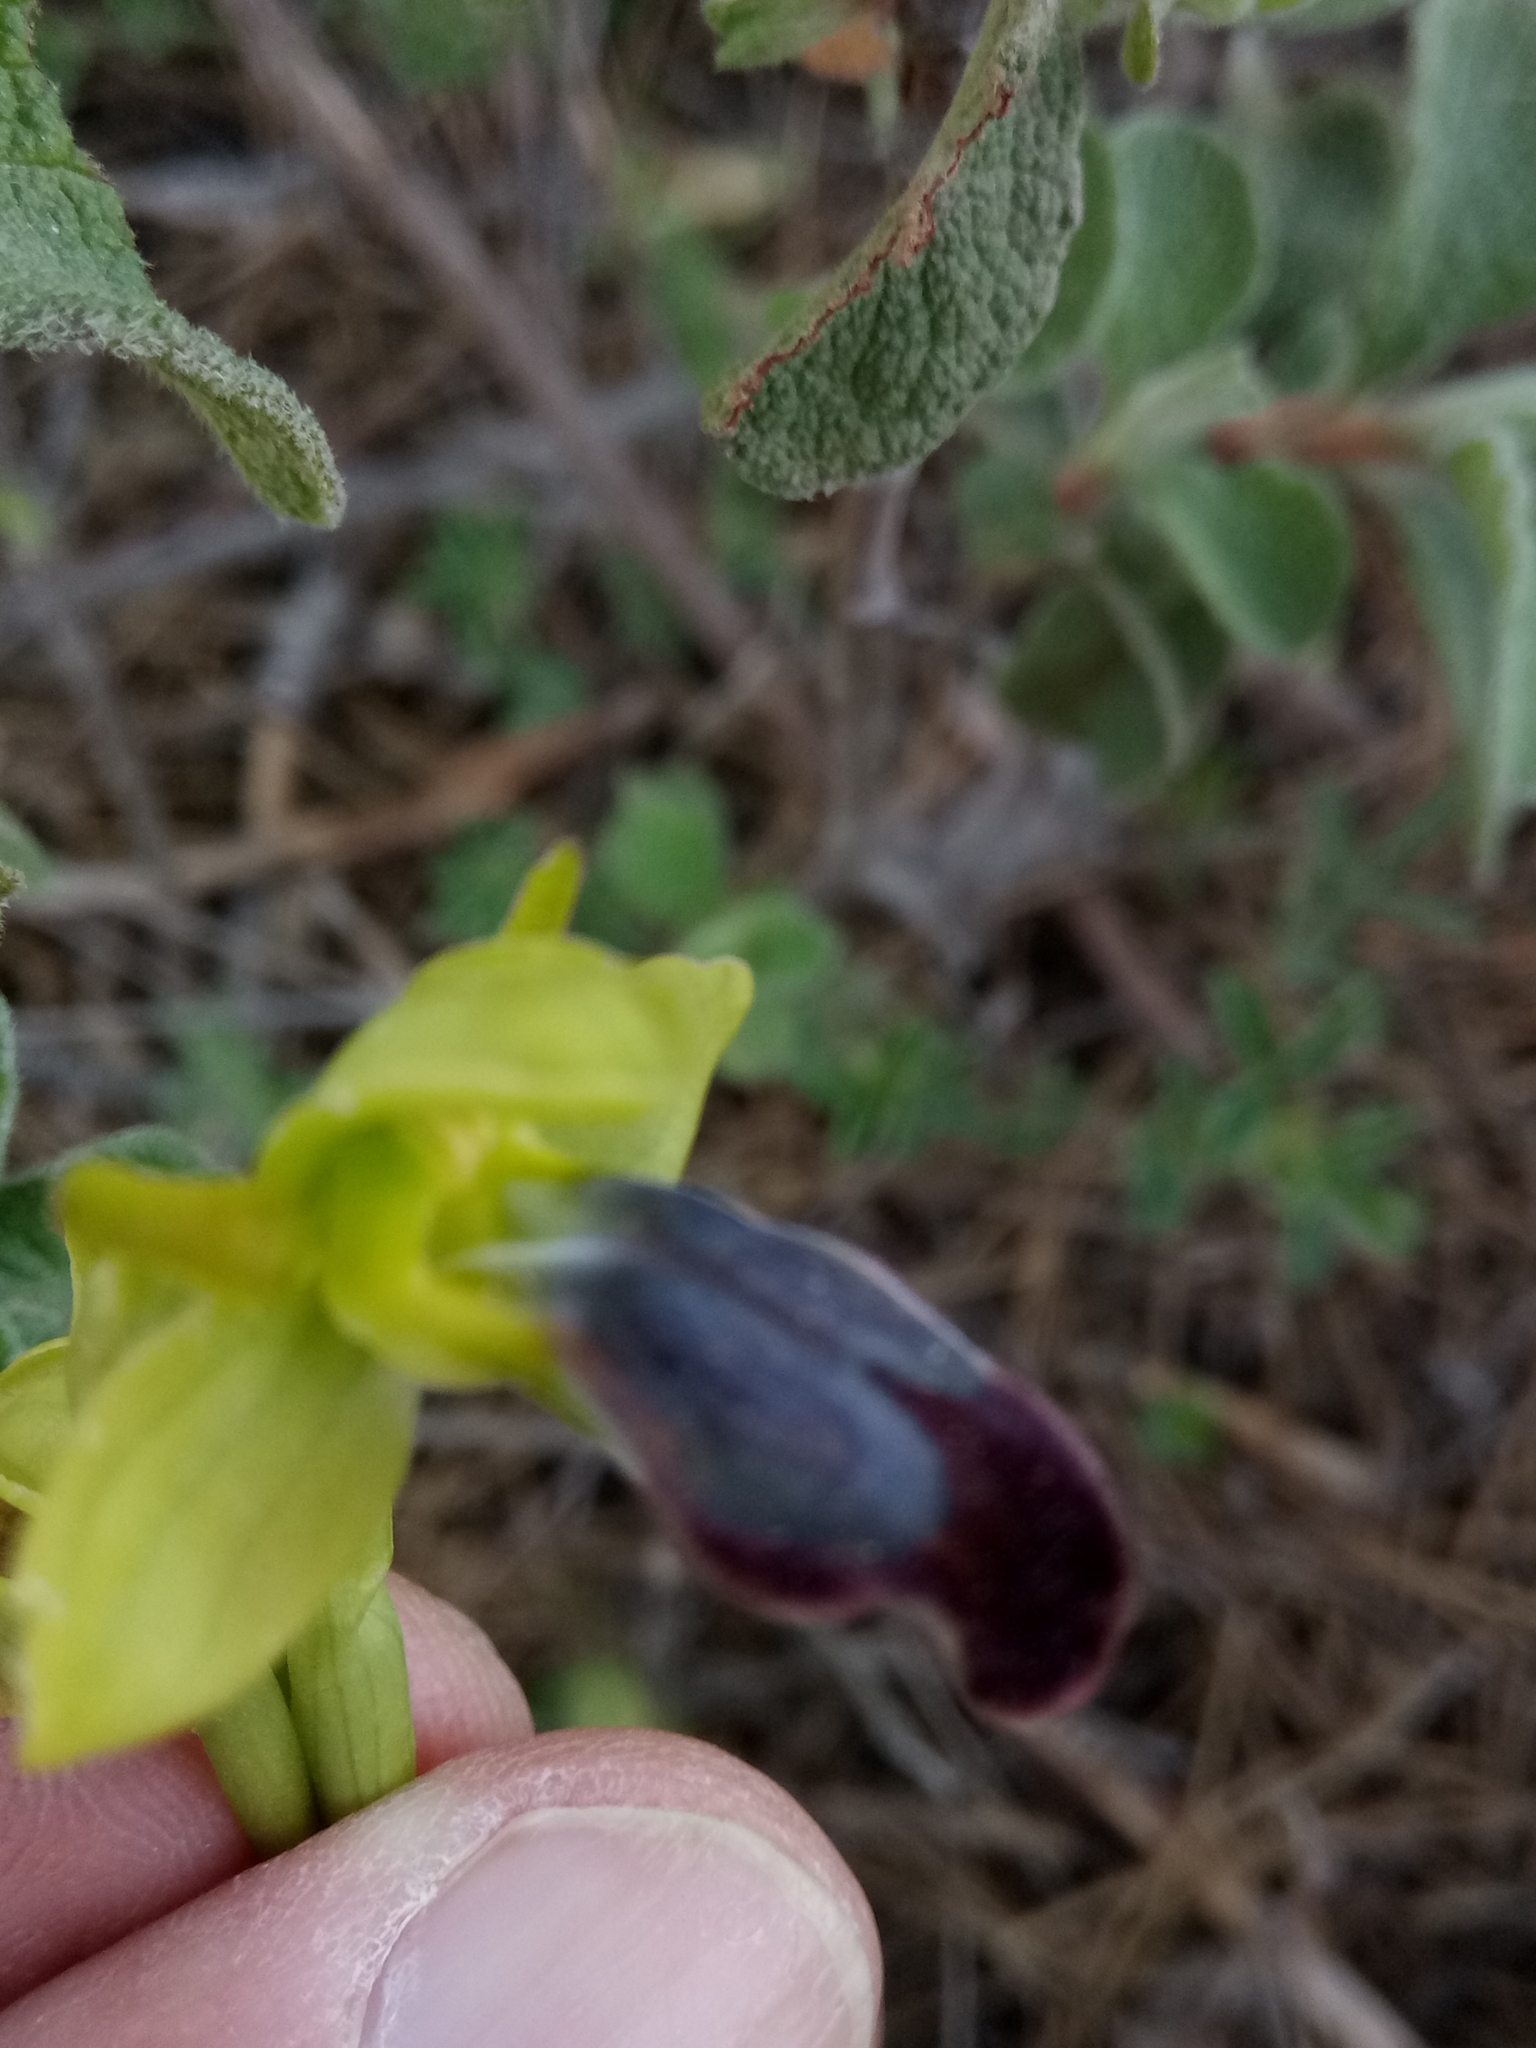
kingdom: Plantae
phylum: Tracheophyta
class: Liliopsida
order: Asparagales
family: Orchidaceae
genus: Ophrys
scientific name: Ophrys fusca
